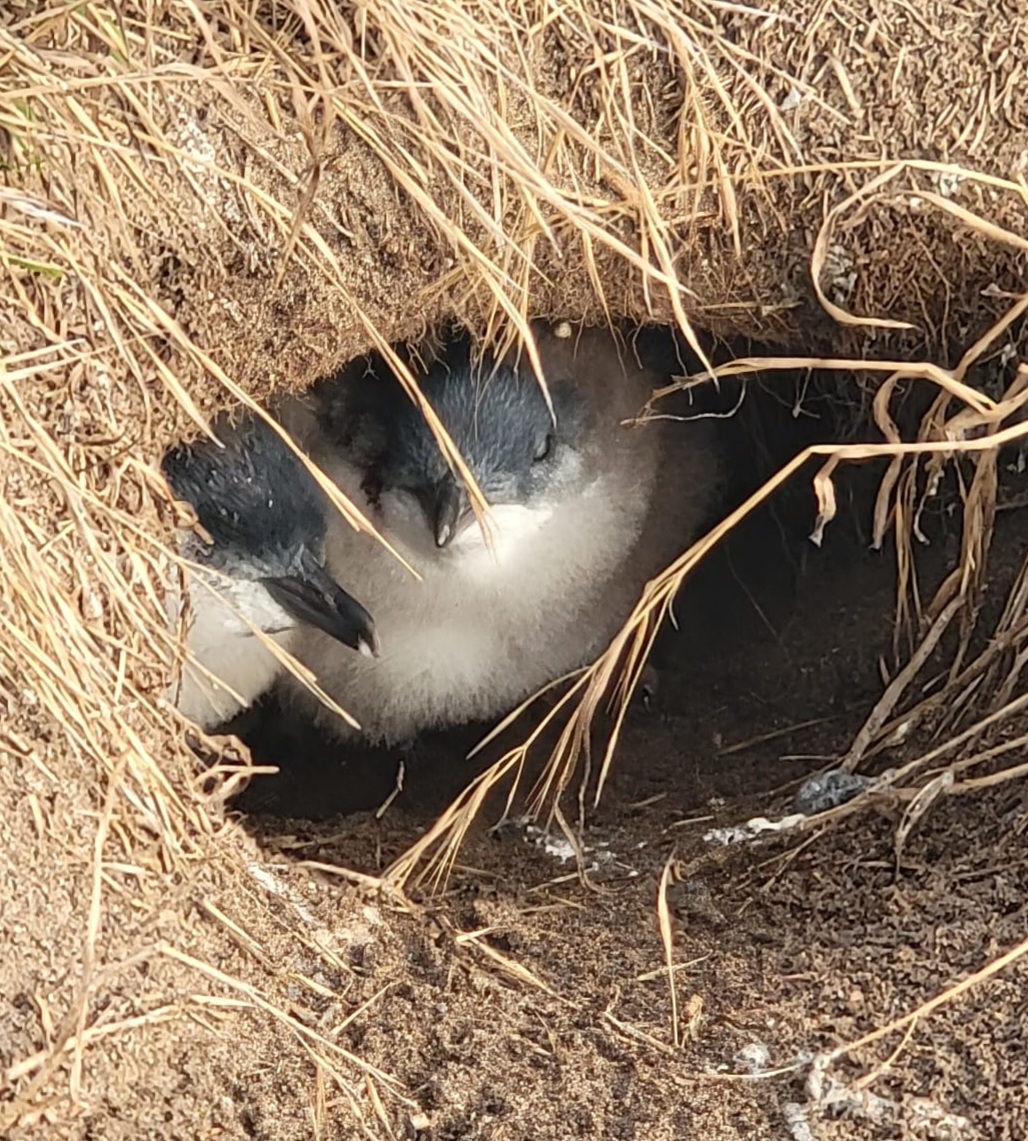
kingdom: Animalia
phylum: Chordata
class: Aves
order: Sphenisciformes
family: Spheniscidae
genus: Eudyptula
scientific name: Eudyptula minor
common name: Little penguin
